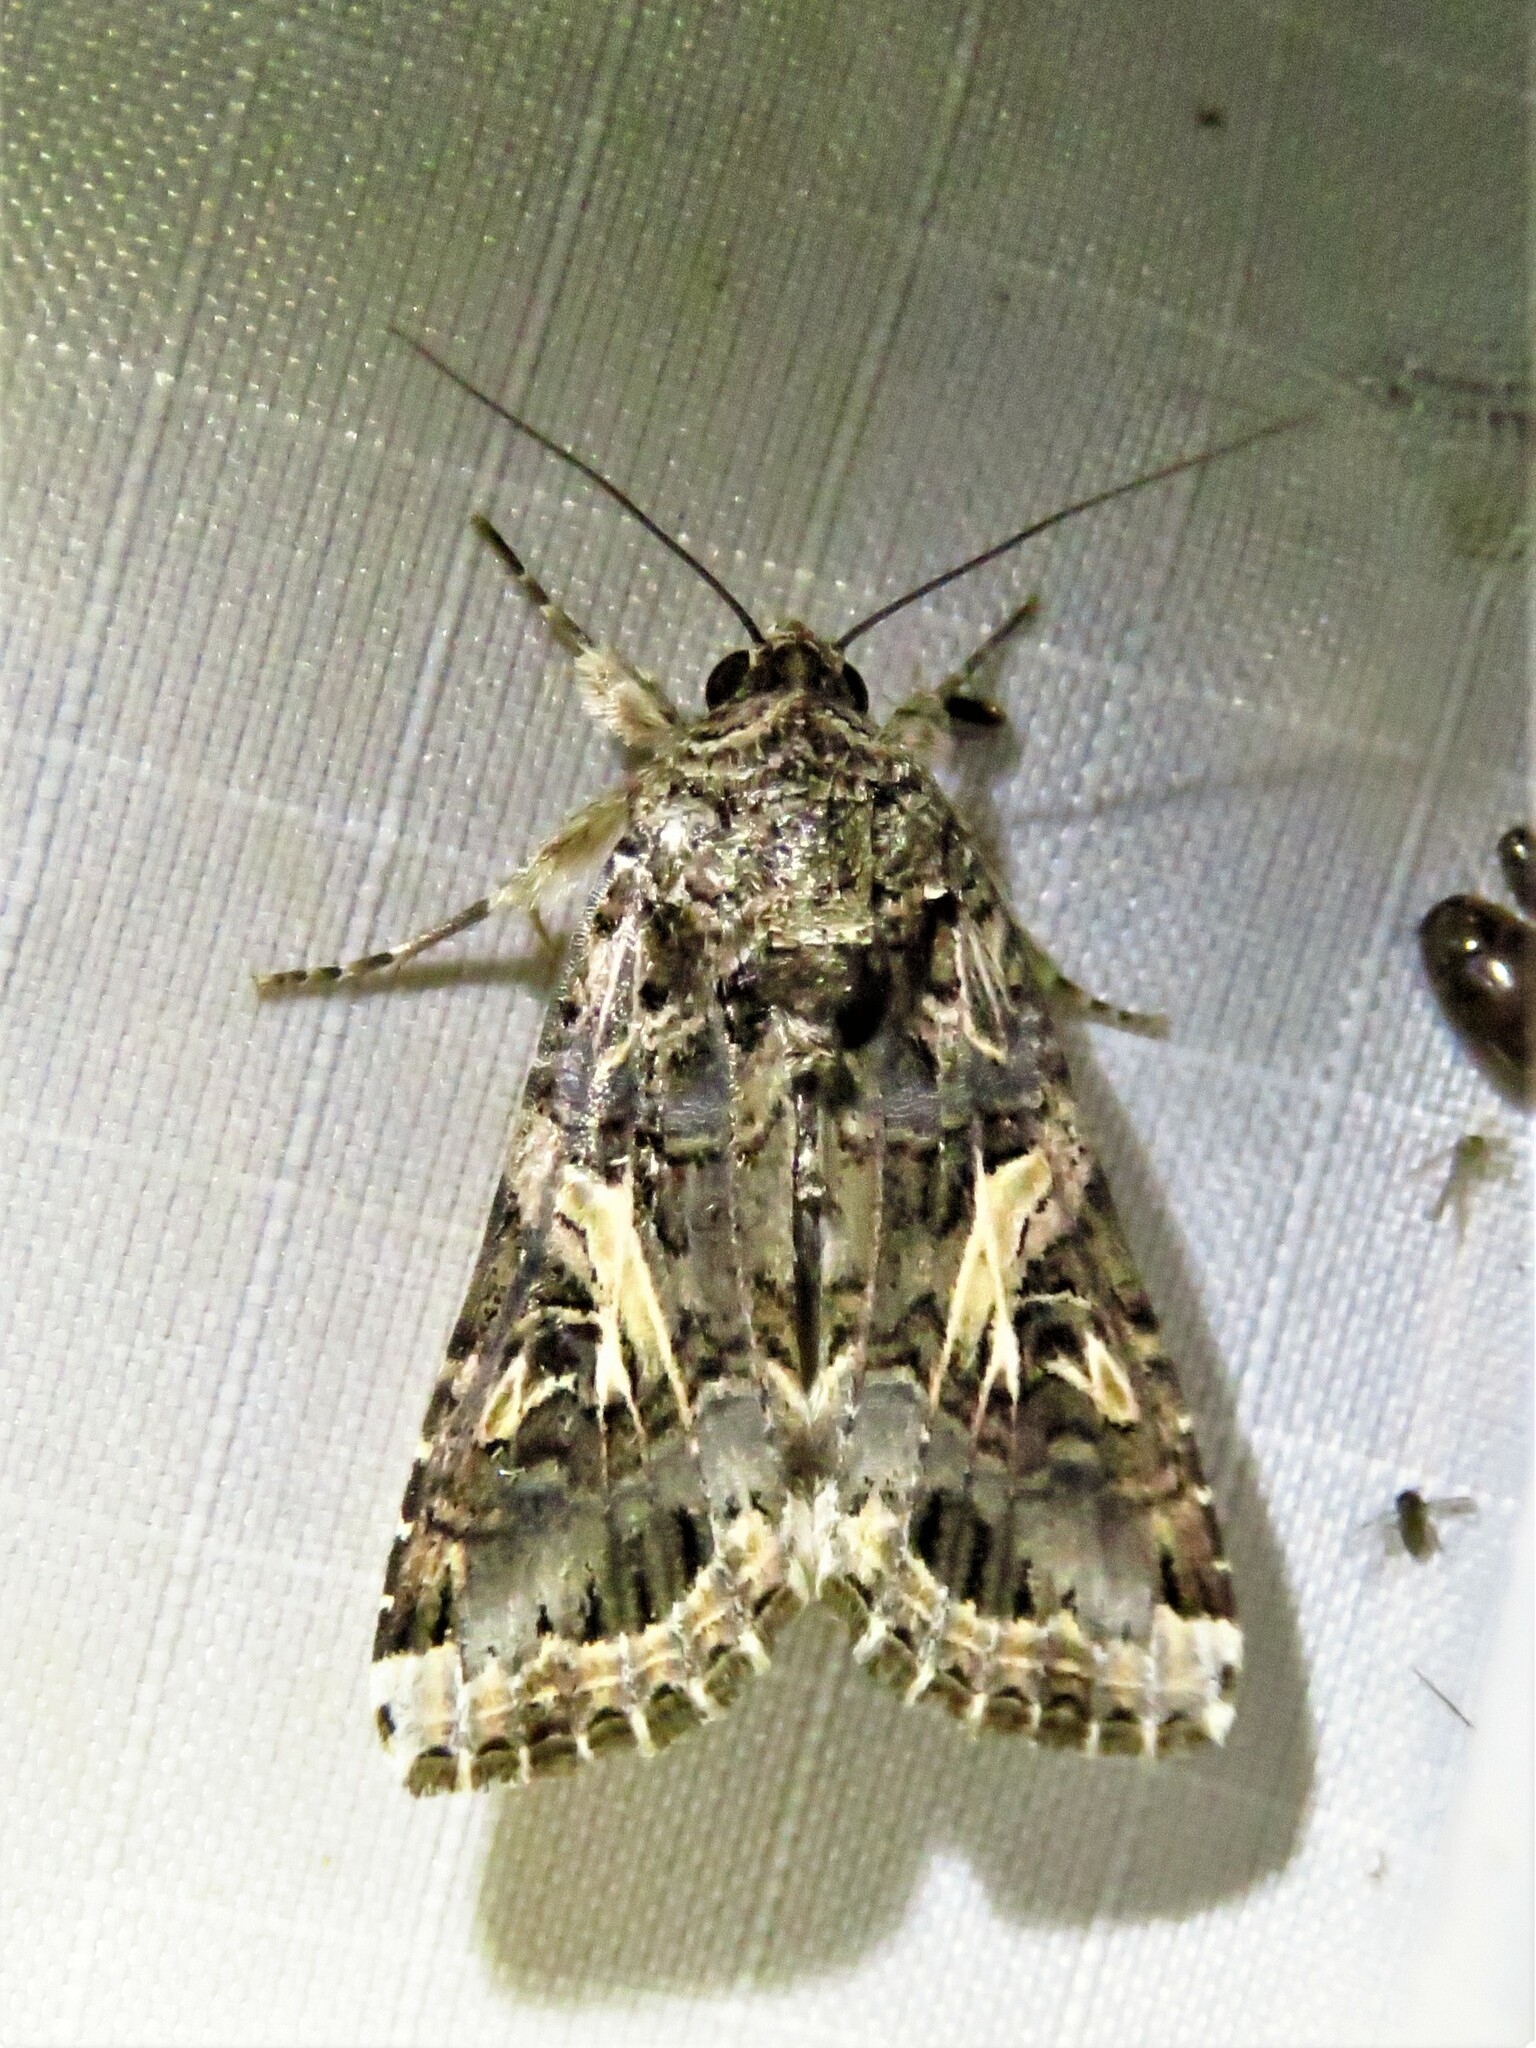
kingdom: Animalia
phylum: Arthropoda
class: Insecta
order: Lepidoptera
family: Noctuidae
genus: Spodoptera
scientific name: Spodoptera ornithogalli
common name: Yellow-striped armyworm
